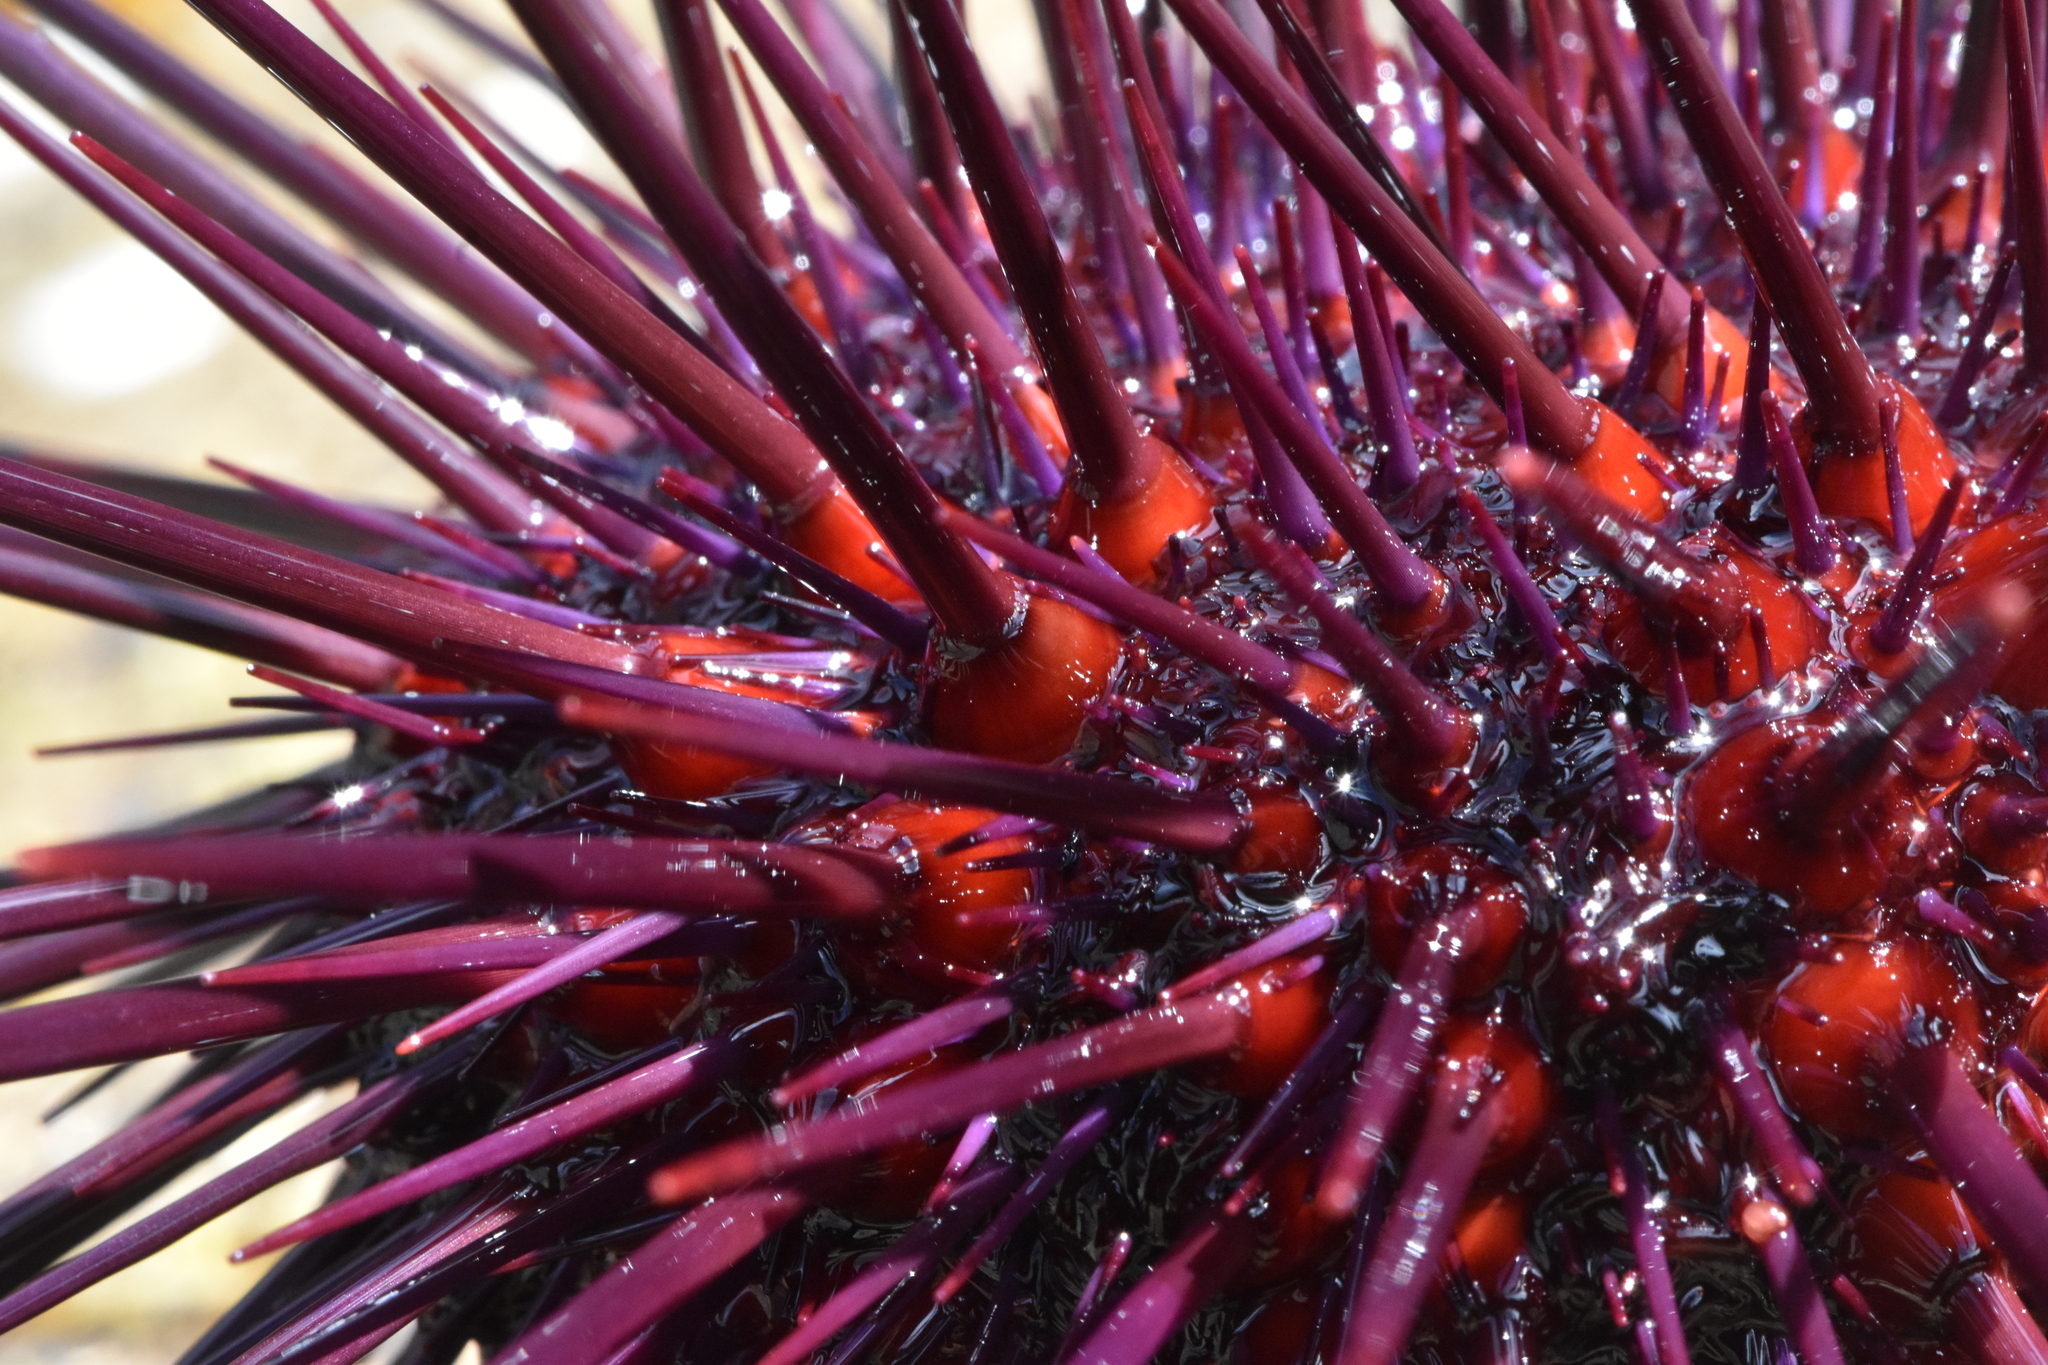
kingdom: Animalia
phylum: Echinodermata
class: Echinoidea
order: Camarodonta
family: Strongylocentrotidae
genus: Mesocentrotus
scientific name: Mesocentrotus franciscanus
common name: Red sea urchin
